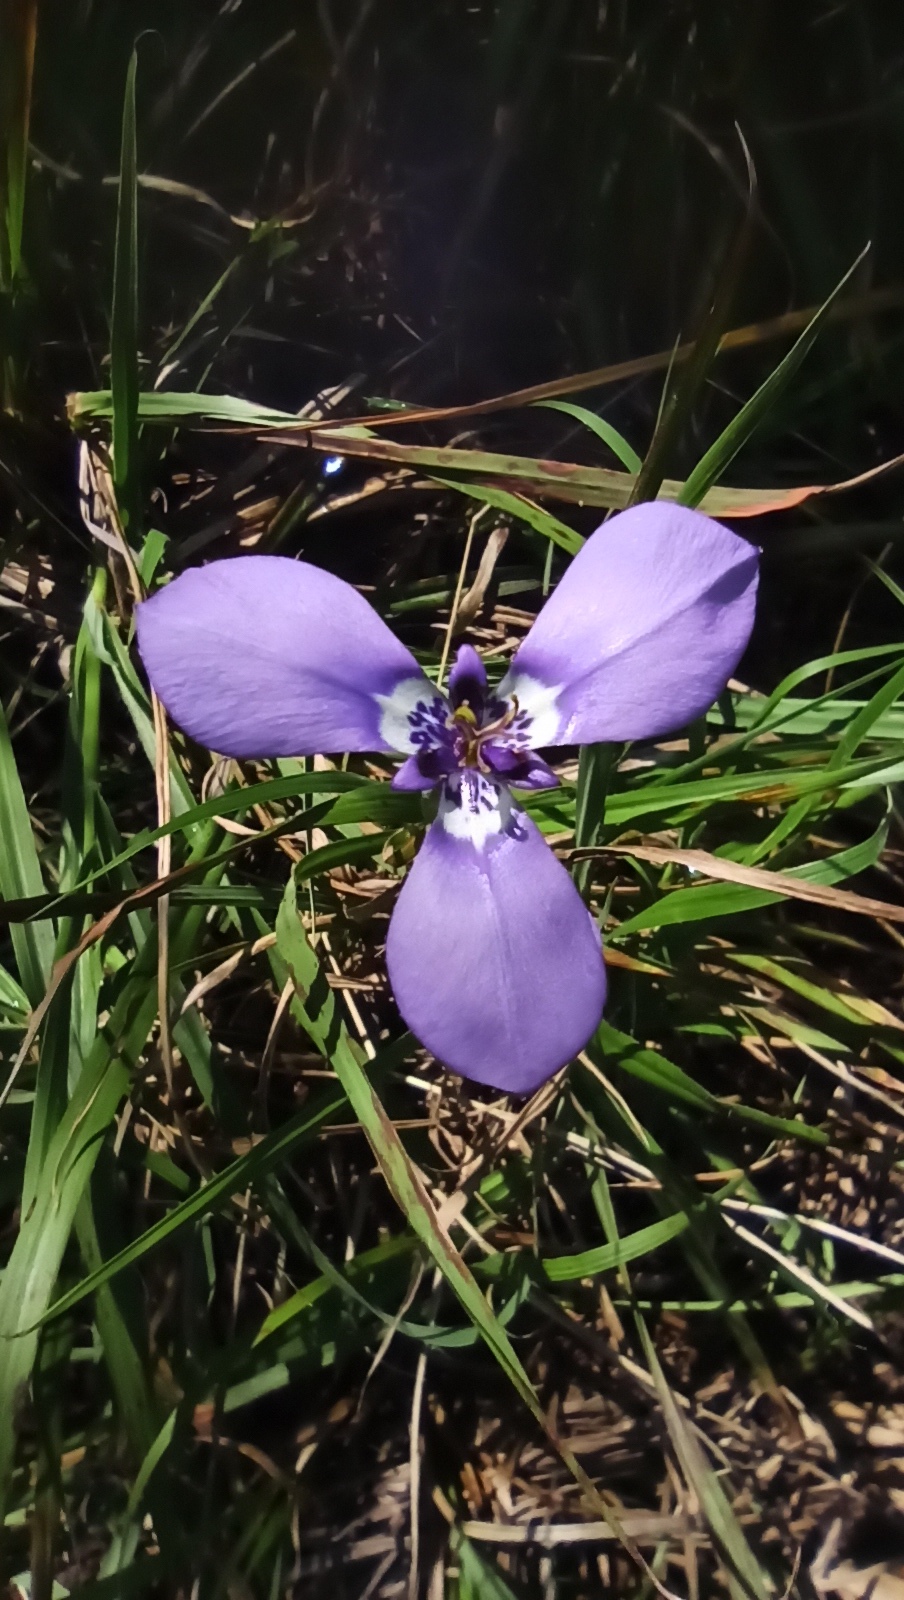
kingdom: Plantae
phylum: Tracheophyta
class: Liliopsida
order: Asparagales
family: Iridaceae
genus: Herbertia
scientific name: Herbertia lahue
